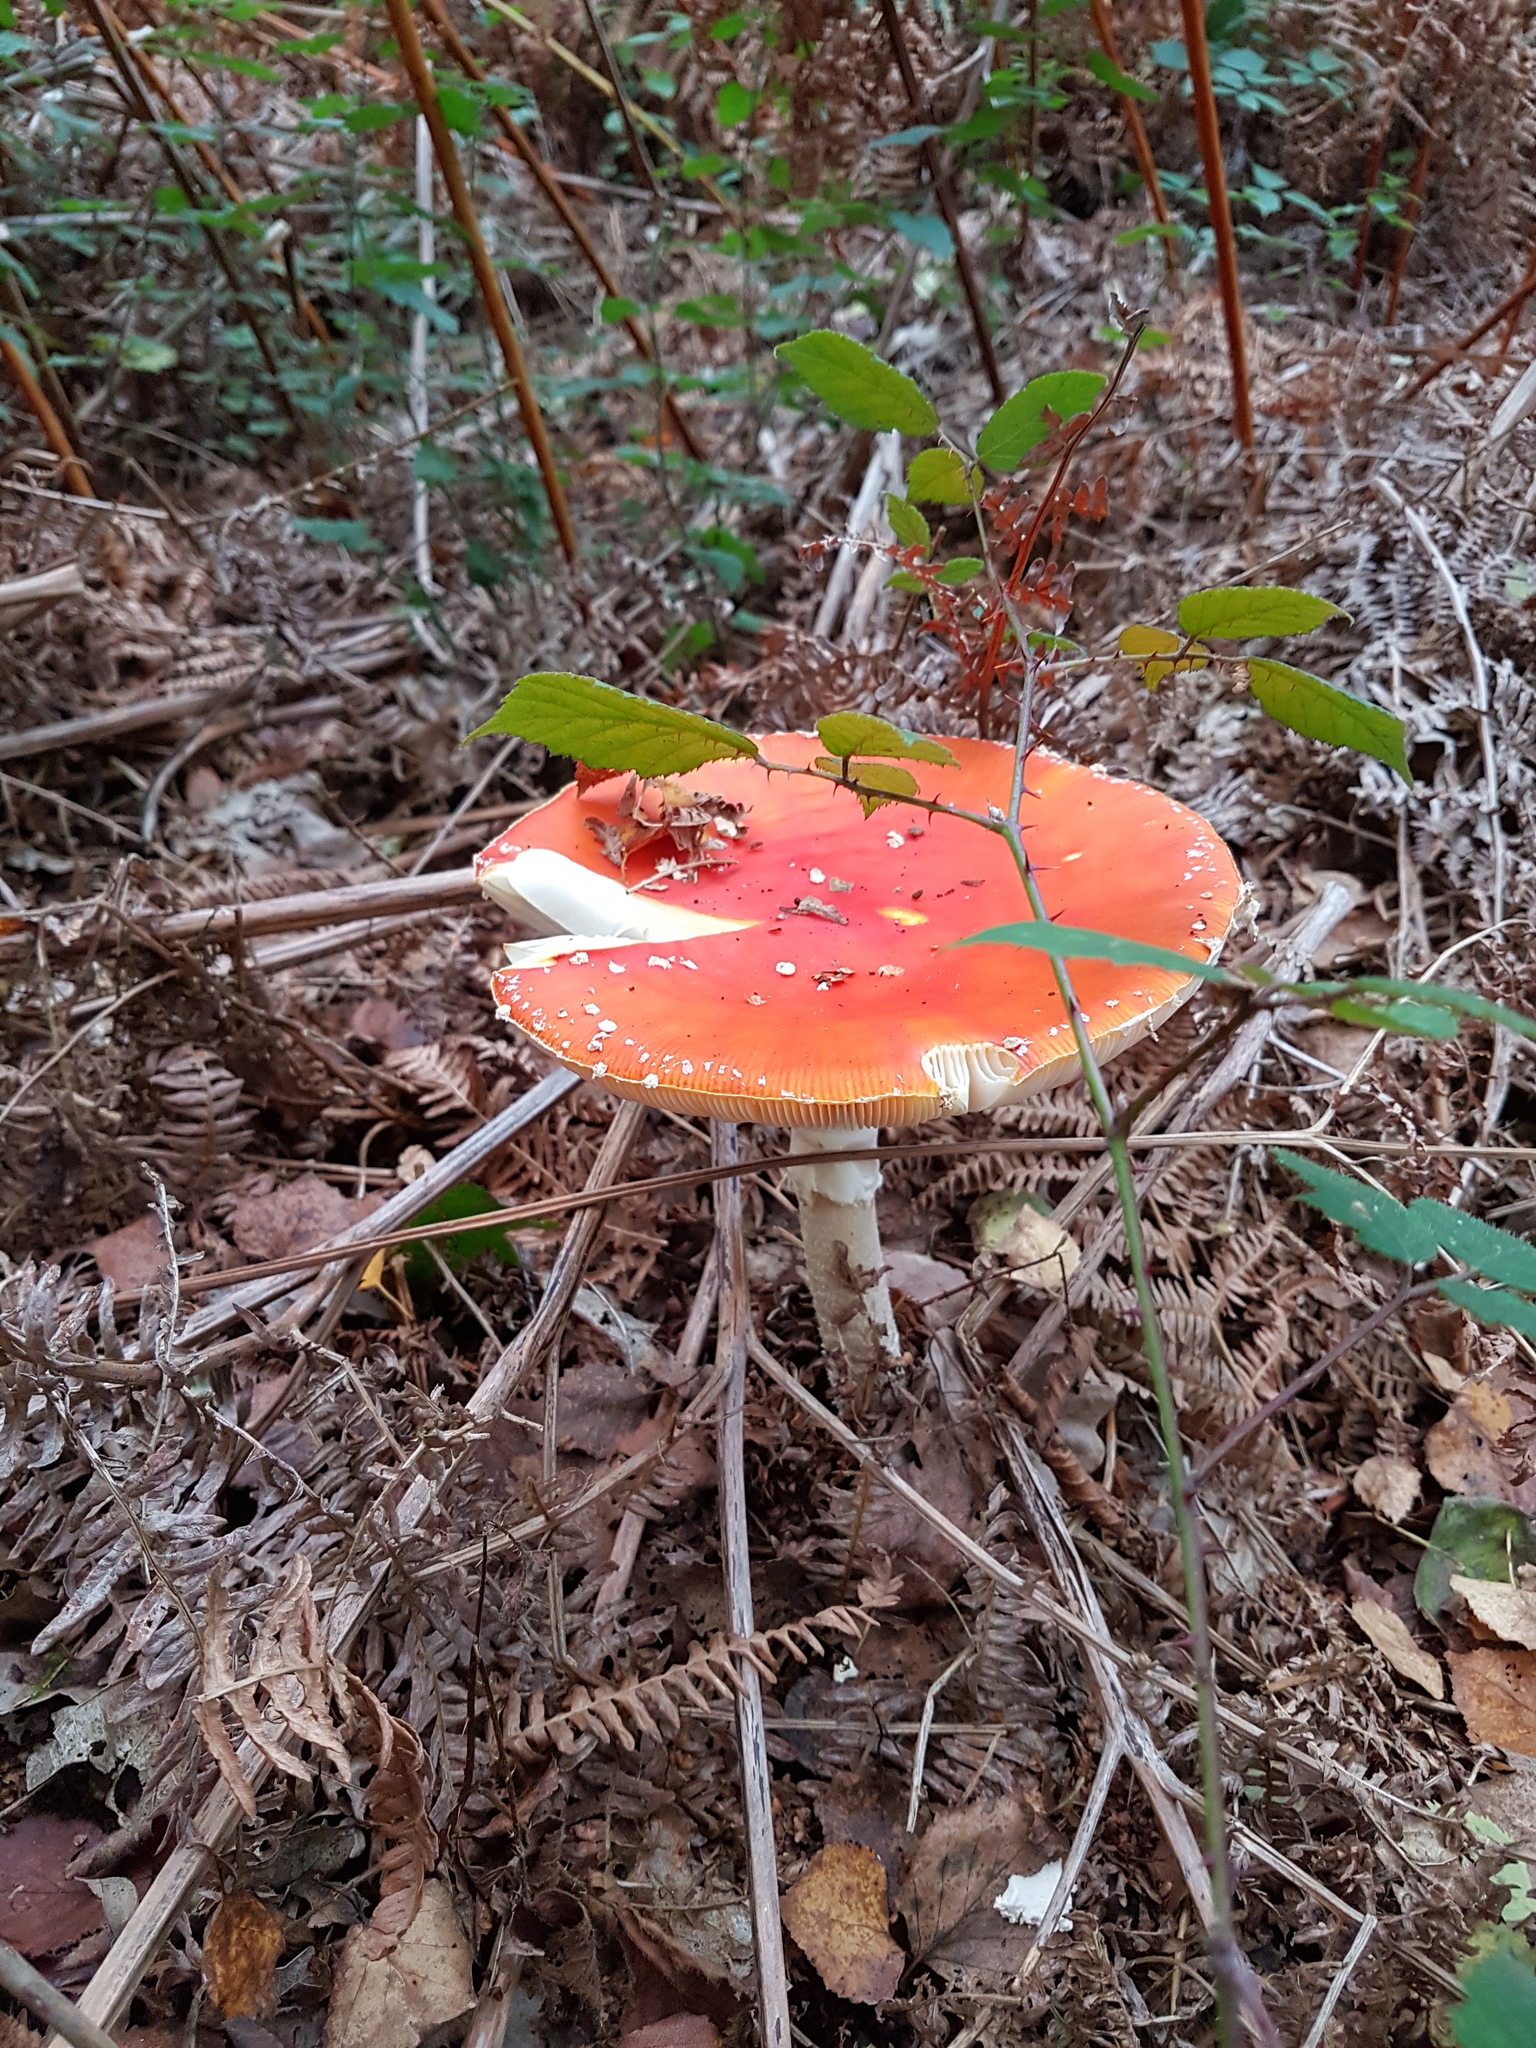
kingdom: Fungi
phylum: Basidiomycota
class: Agaricomycetes
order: Agaricales
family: Amanitaceae
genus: Amanita
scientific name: Amanita muscaria
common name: Fly agaric
